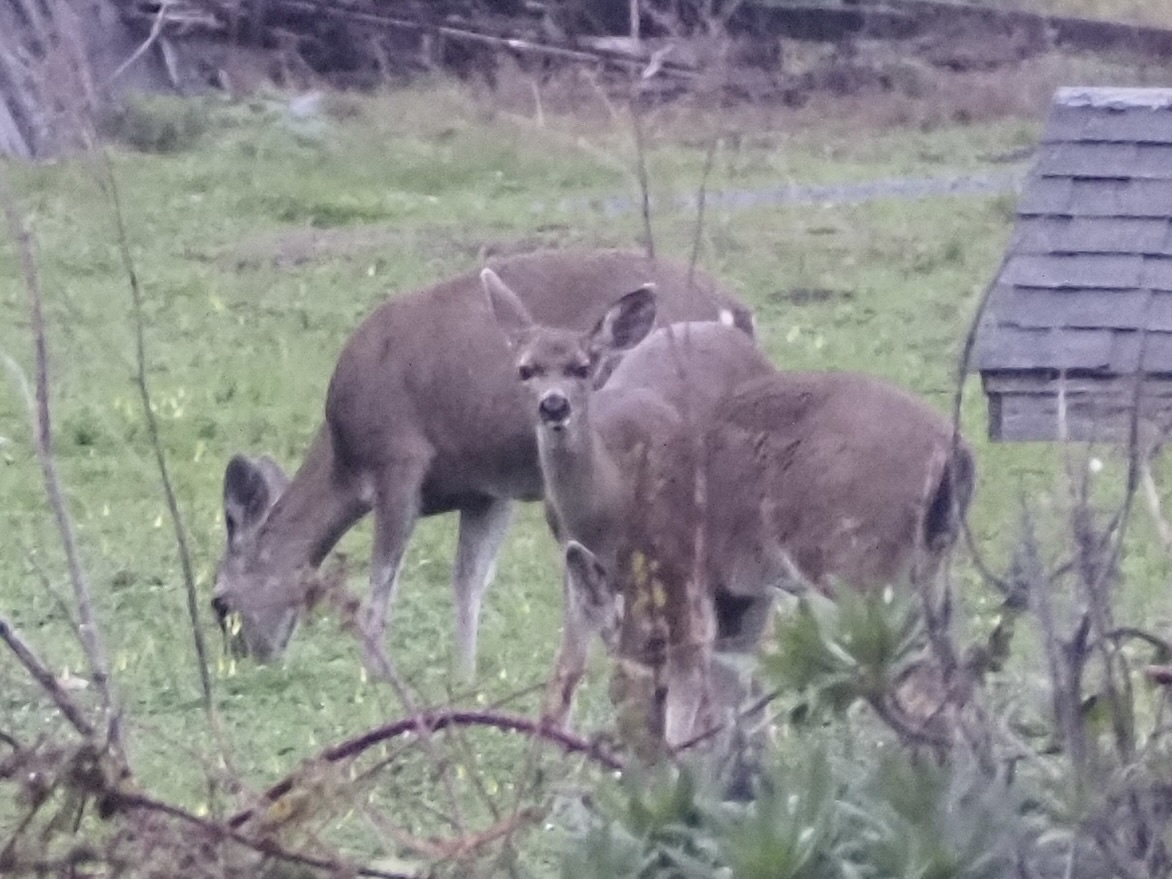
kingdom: Animalia
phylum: Chordata
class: Mammalia
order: Artiodactyla
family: Cervidae
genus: Odocoileus
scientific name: Odocoileus hemionus
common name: Mule deer
